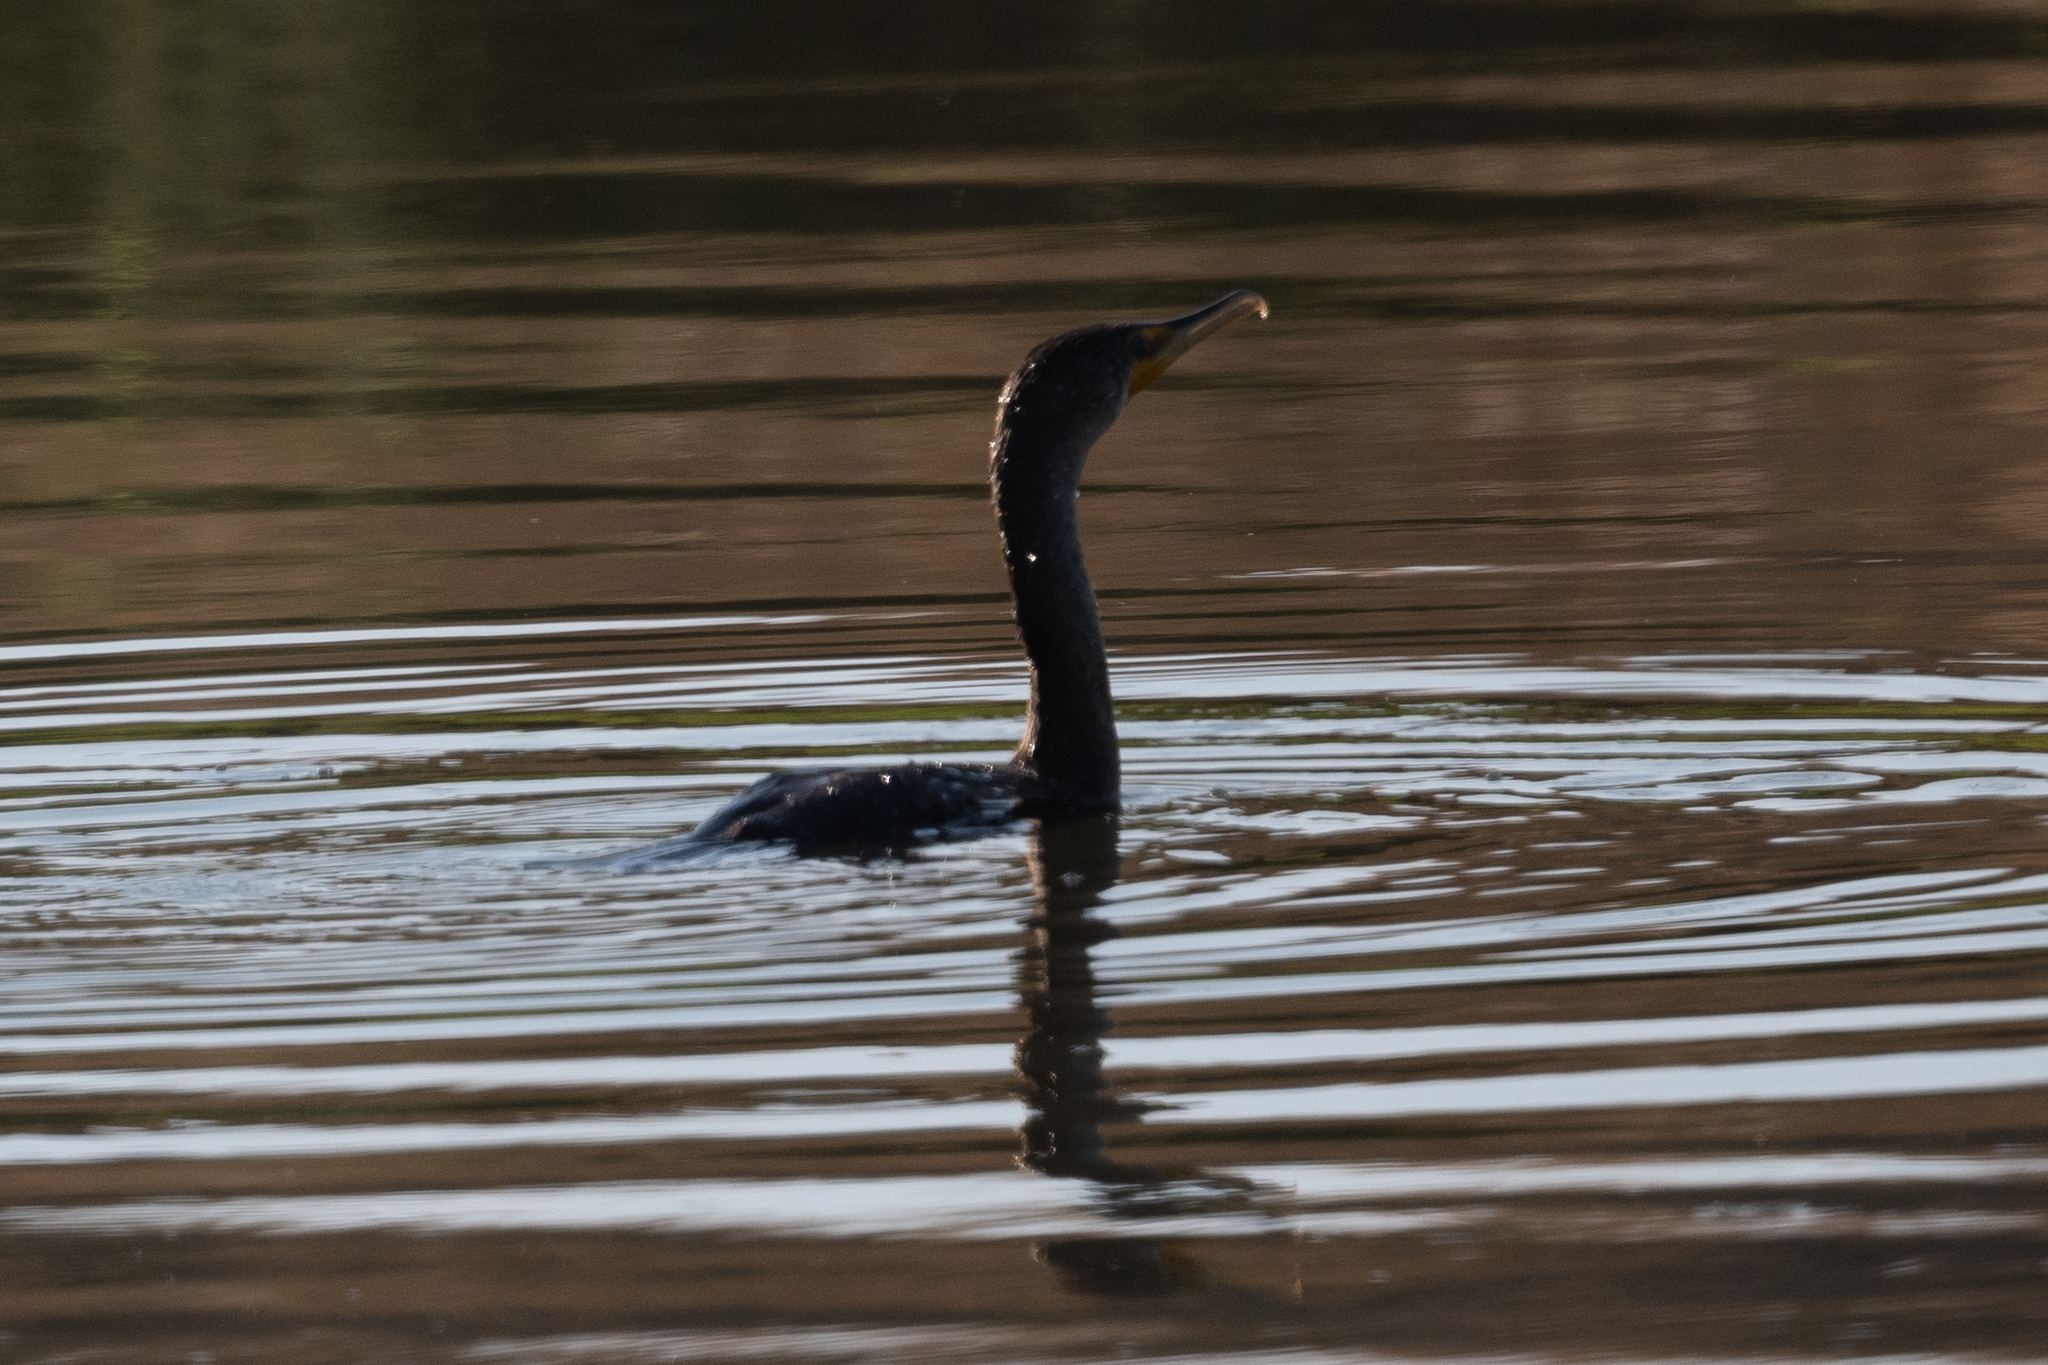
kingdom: Animalia
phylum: Chordata
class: Aves
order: Suliformes
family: Phalacrocoracidae
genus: Phalacrocorax
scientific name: Phalacrocorax auritus
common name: Double-crested cormorant
